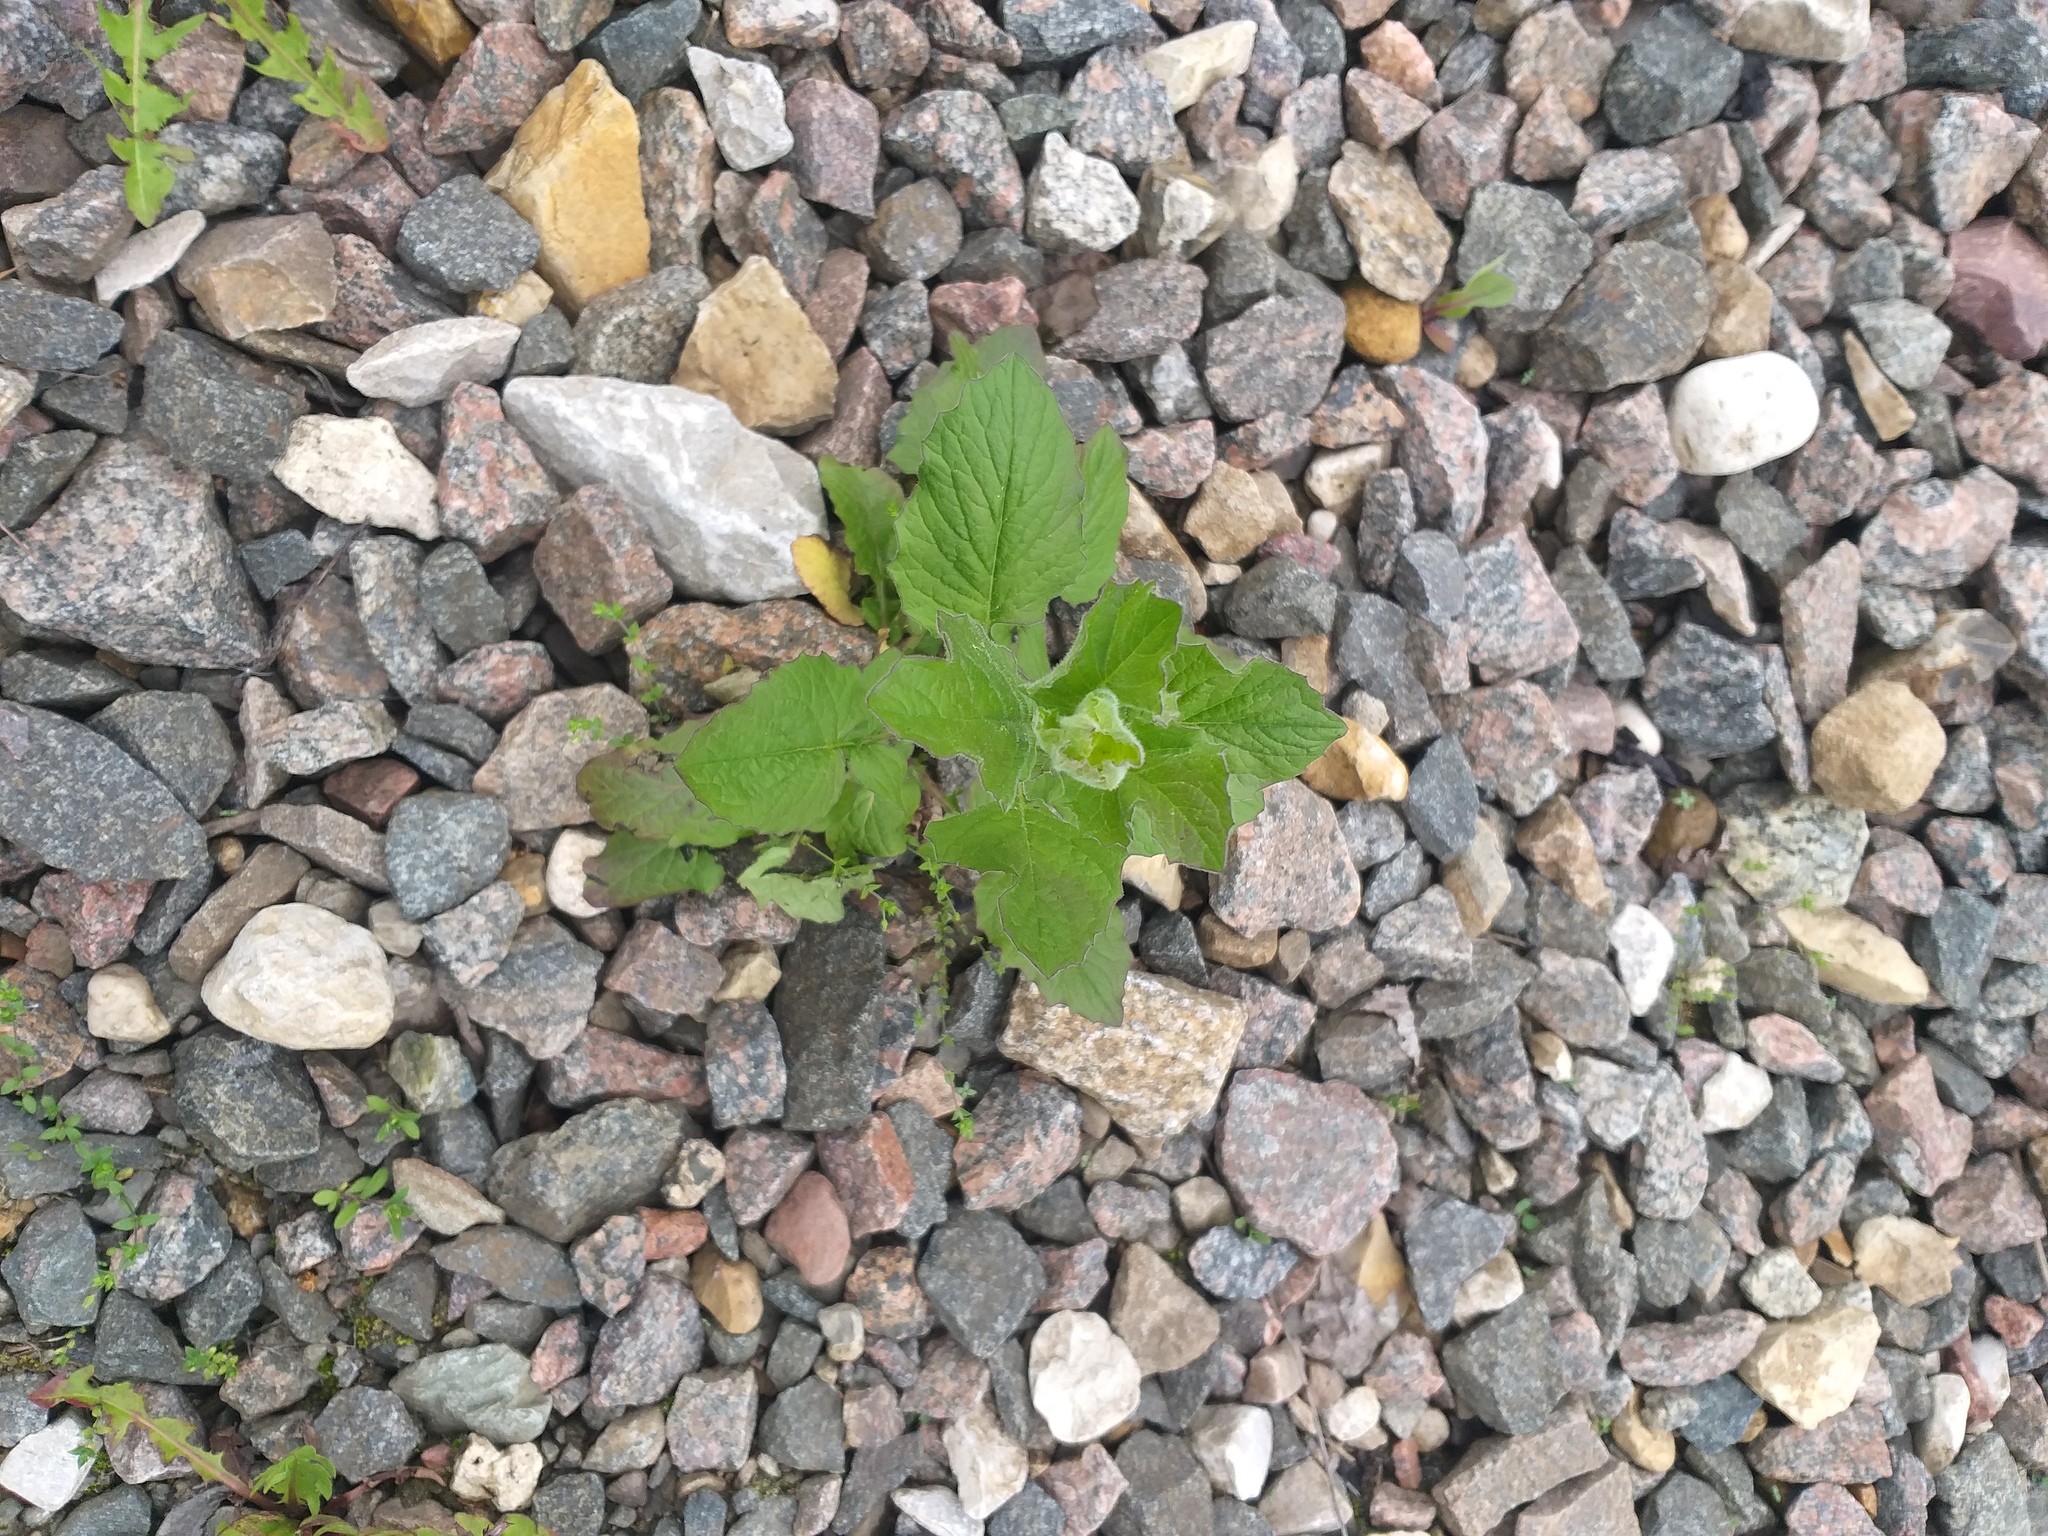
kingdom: Plantae
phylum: Tracheophyta
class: Magnoliopsida
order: Asterales
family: Asteraceae
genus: Lapsana
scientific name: Lapsana communis
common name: Nipplewort
